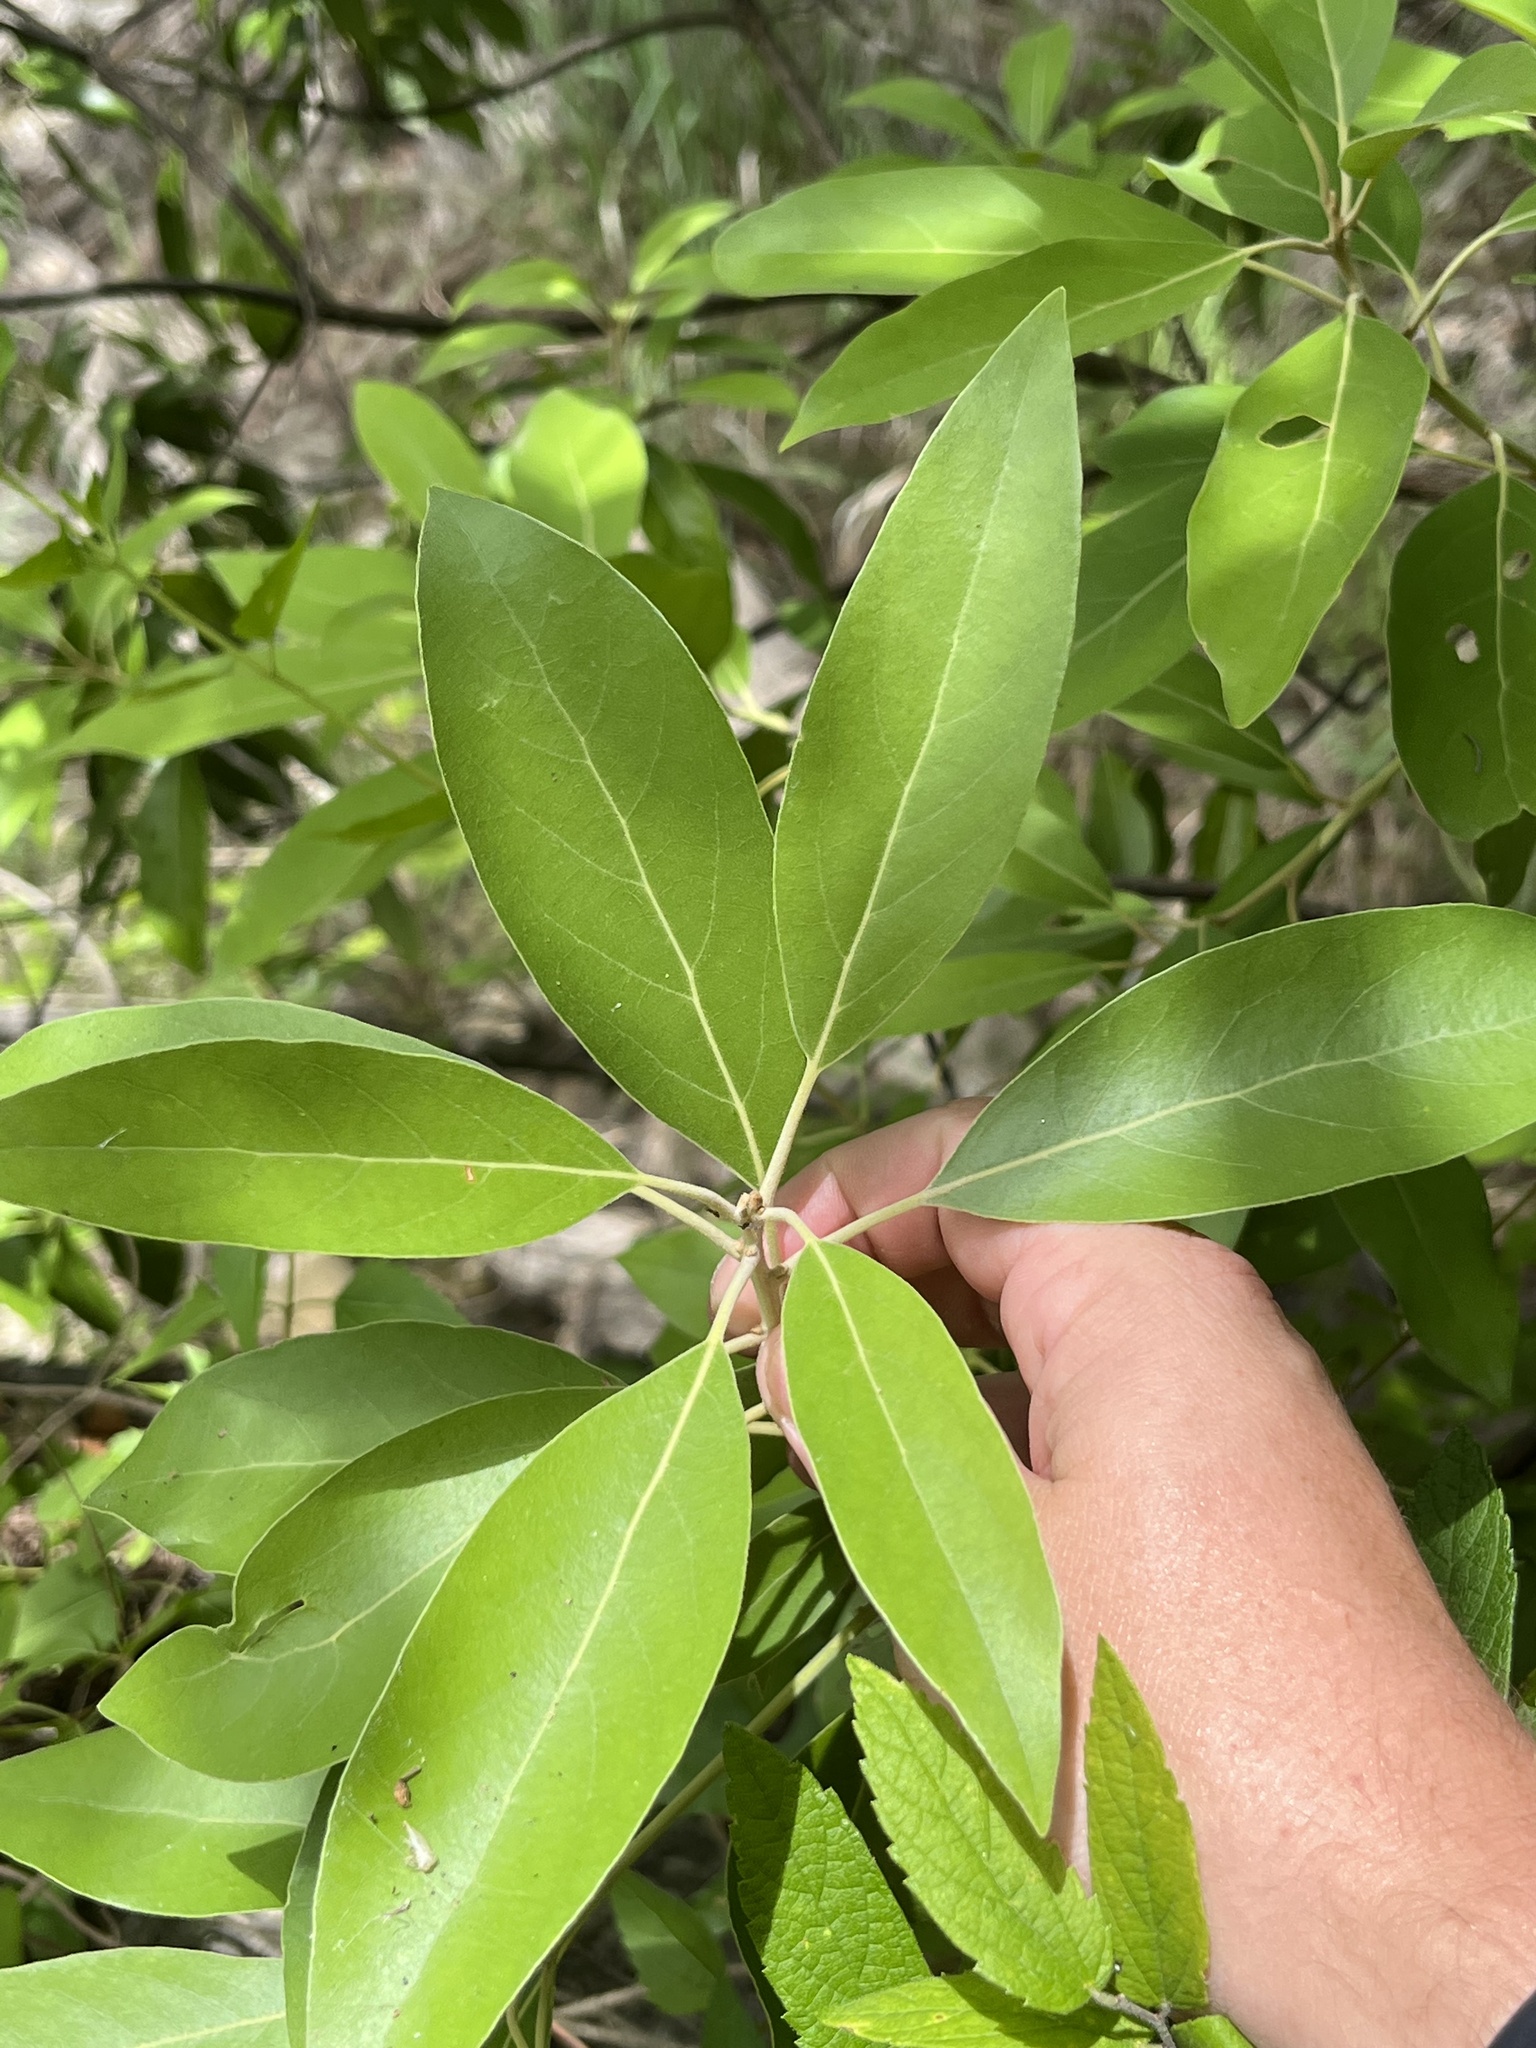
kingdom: Plantae
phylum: Tracheophyta
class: Magnoliopsida
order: Laurales
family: Lauraceae
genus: Persea
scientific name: Persea borbonia
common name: Redbay
